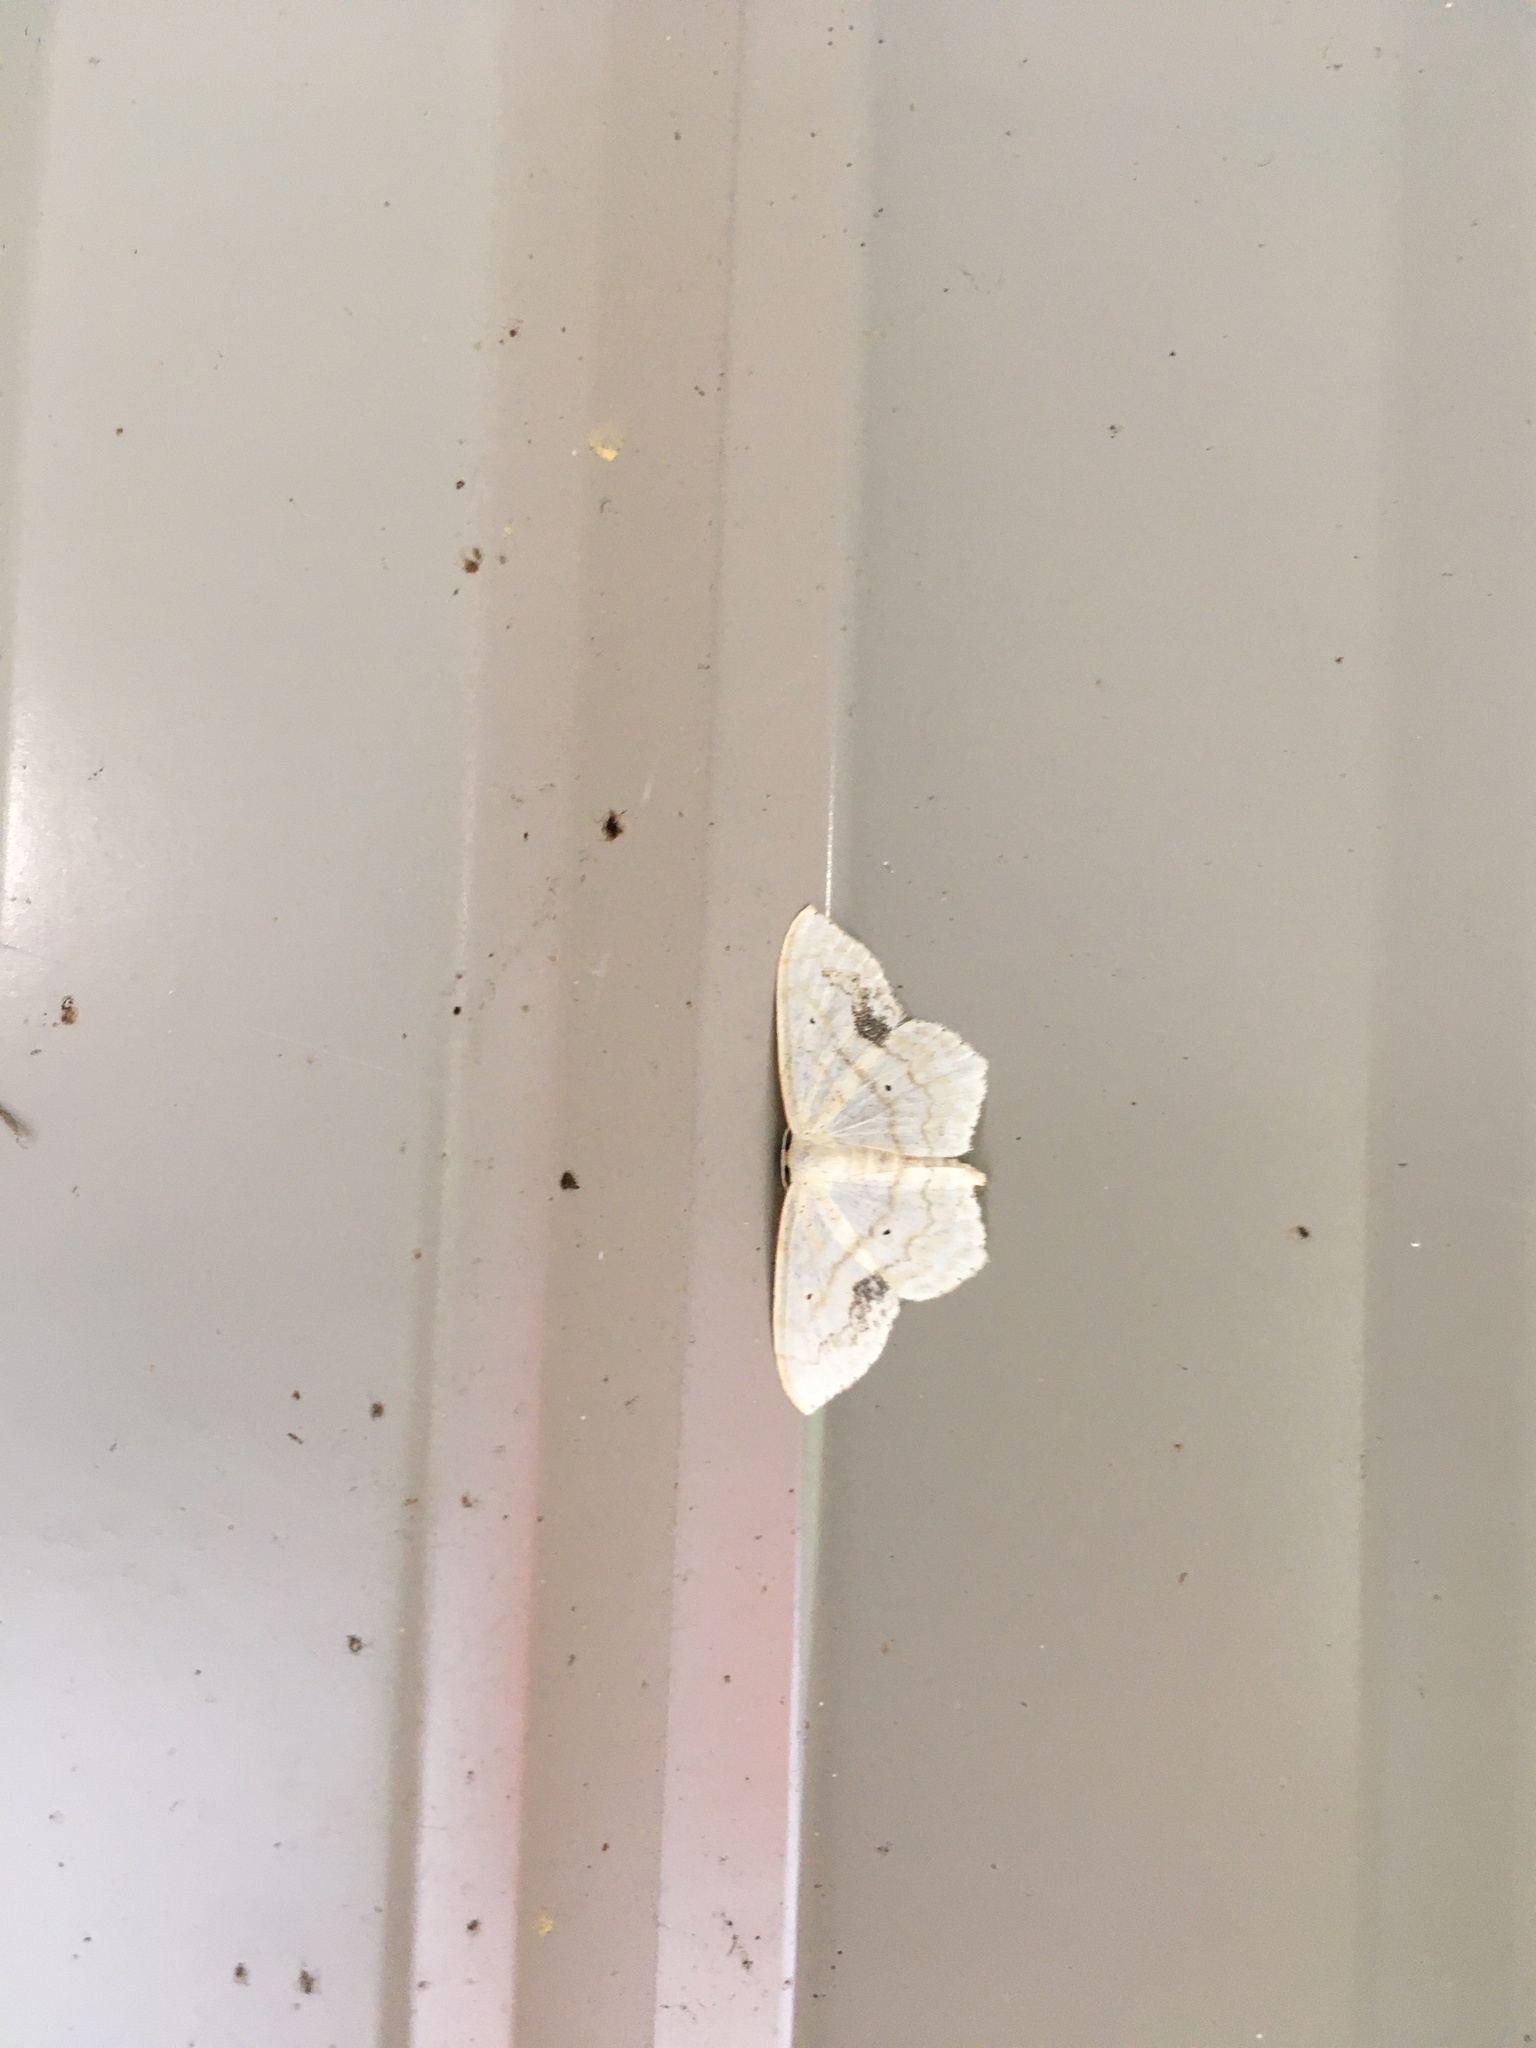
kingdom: Animalia
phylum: Arthropoda
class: Insecta
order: Lepidoptera
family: Geometridae
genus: Scopula
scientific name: Scopula limboundata
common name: Large lace border
